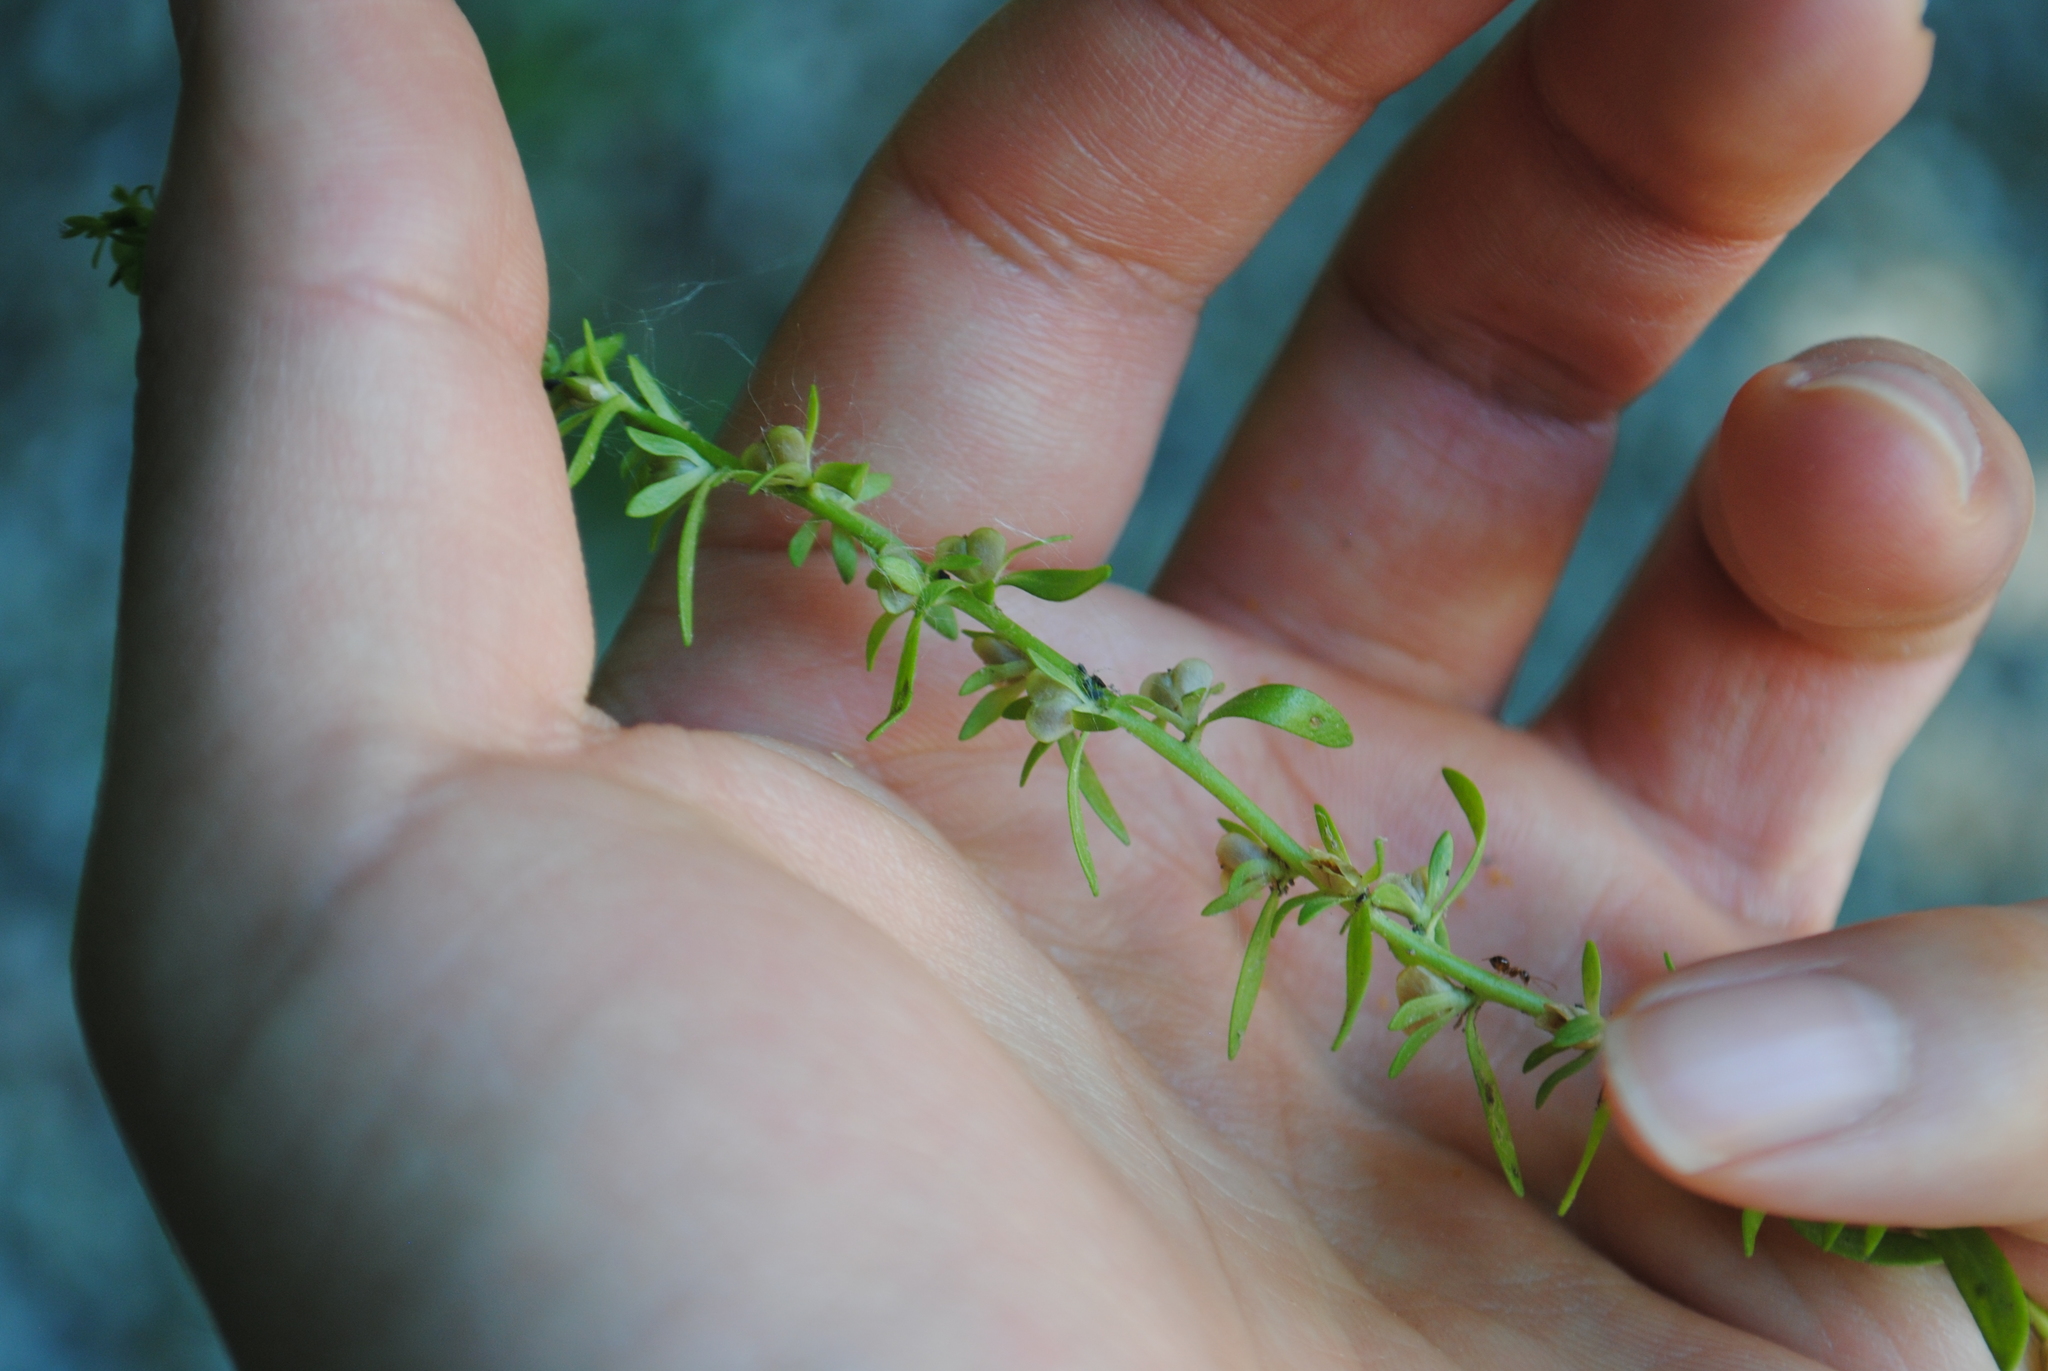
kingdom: Plantae
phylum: Tracheophyta
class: Magnoliopsida
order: Lamiales
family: Plantaginaceae
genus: Veronica
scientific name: Veronica peregrina
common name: Neckweed
